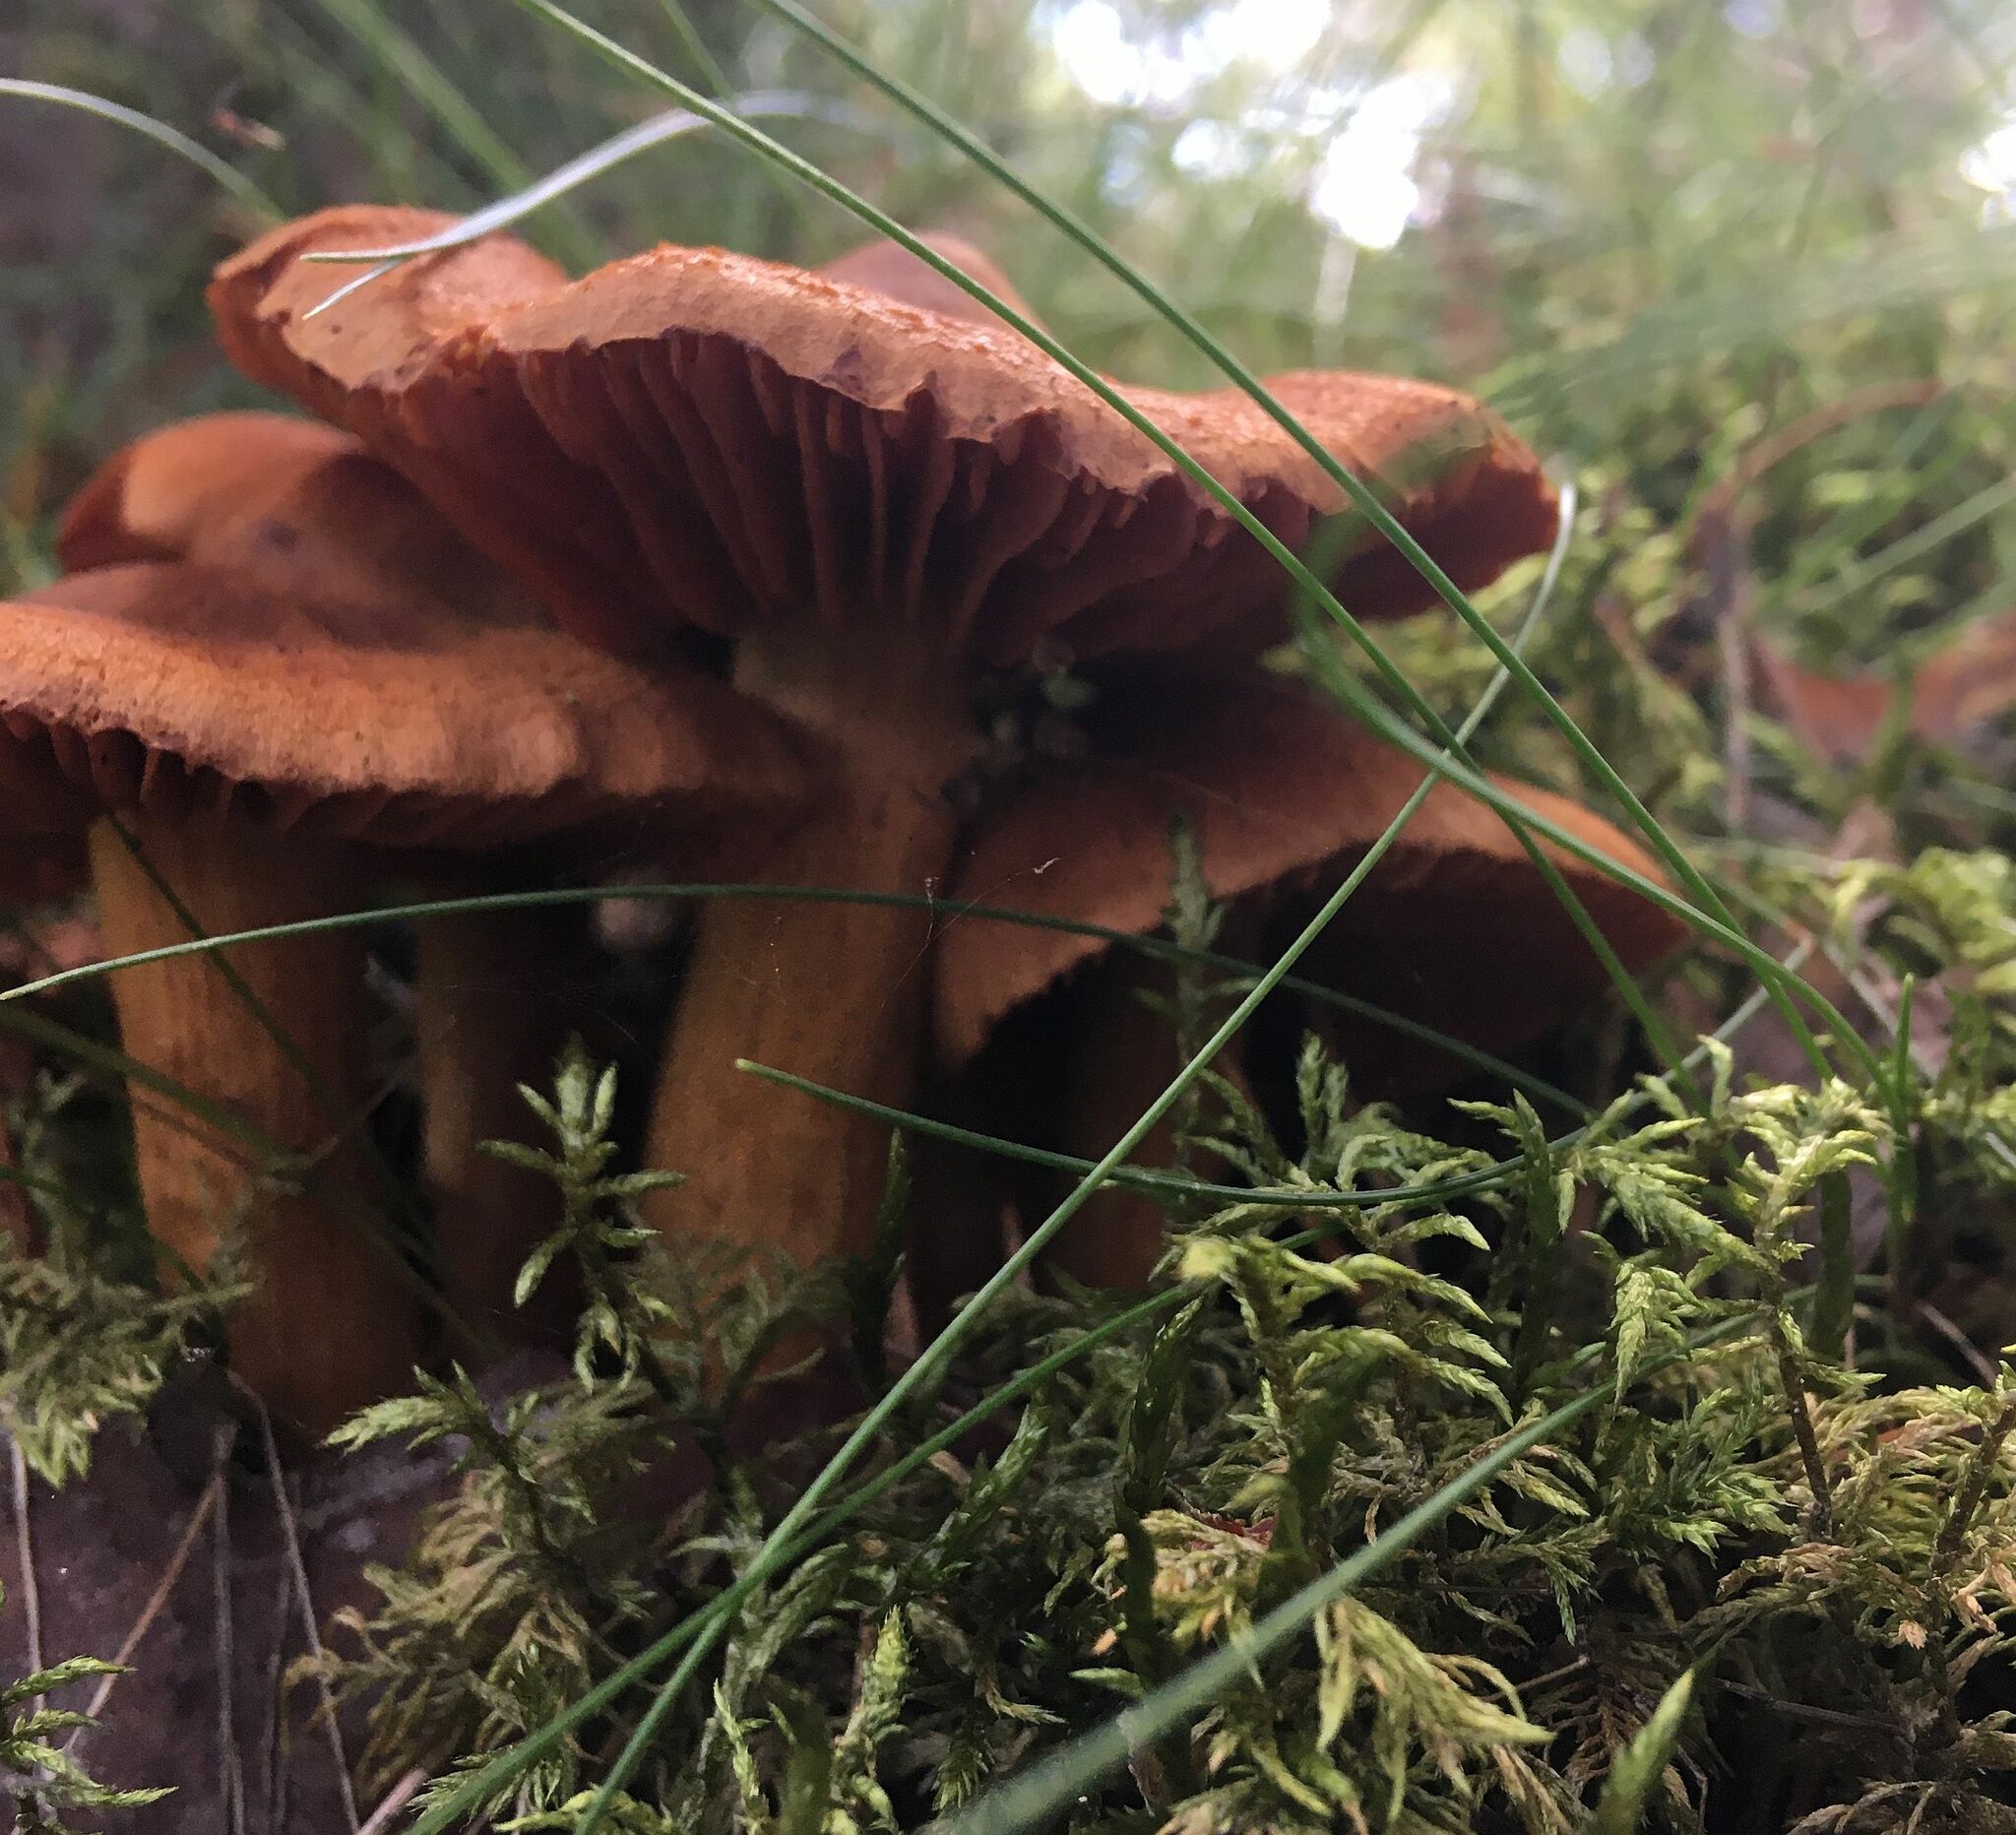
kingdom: Fungi
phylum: Basidiomycota
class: Agaricomycetes
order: Agaricales
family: Cortinariaceae
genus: Cortinarius
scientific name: Cortinarius rubellus
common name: Deadly webcap
